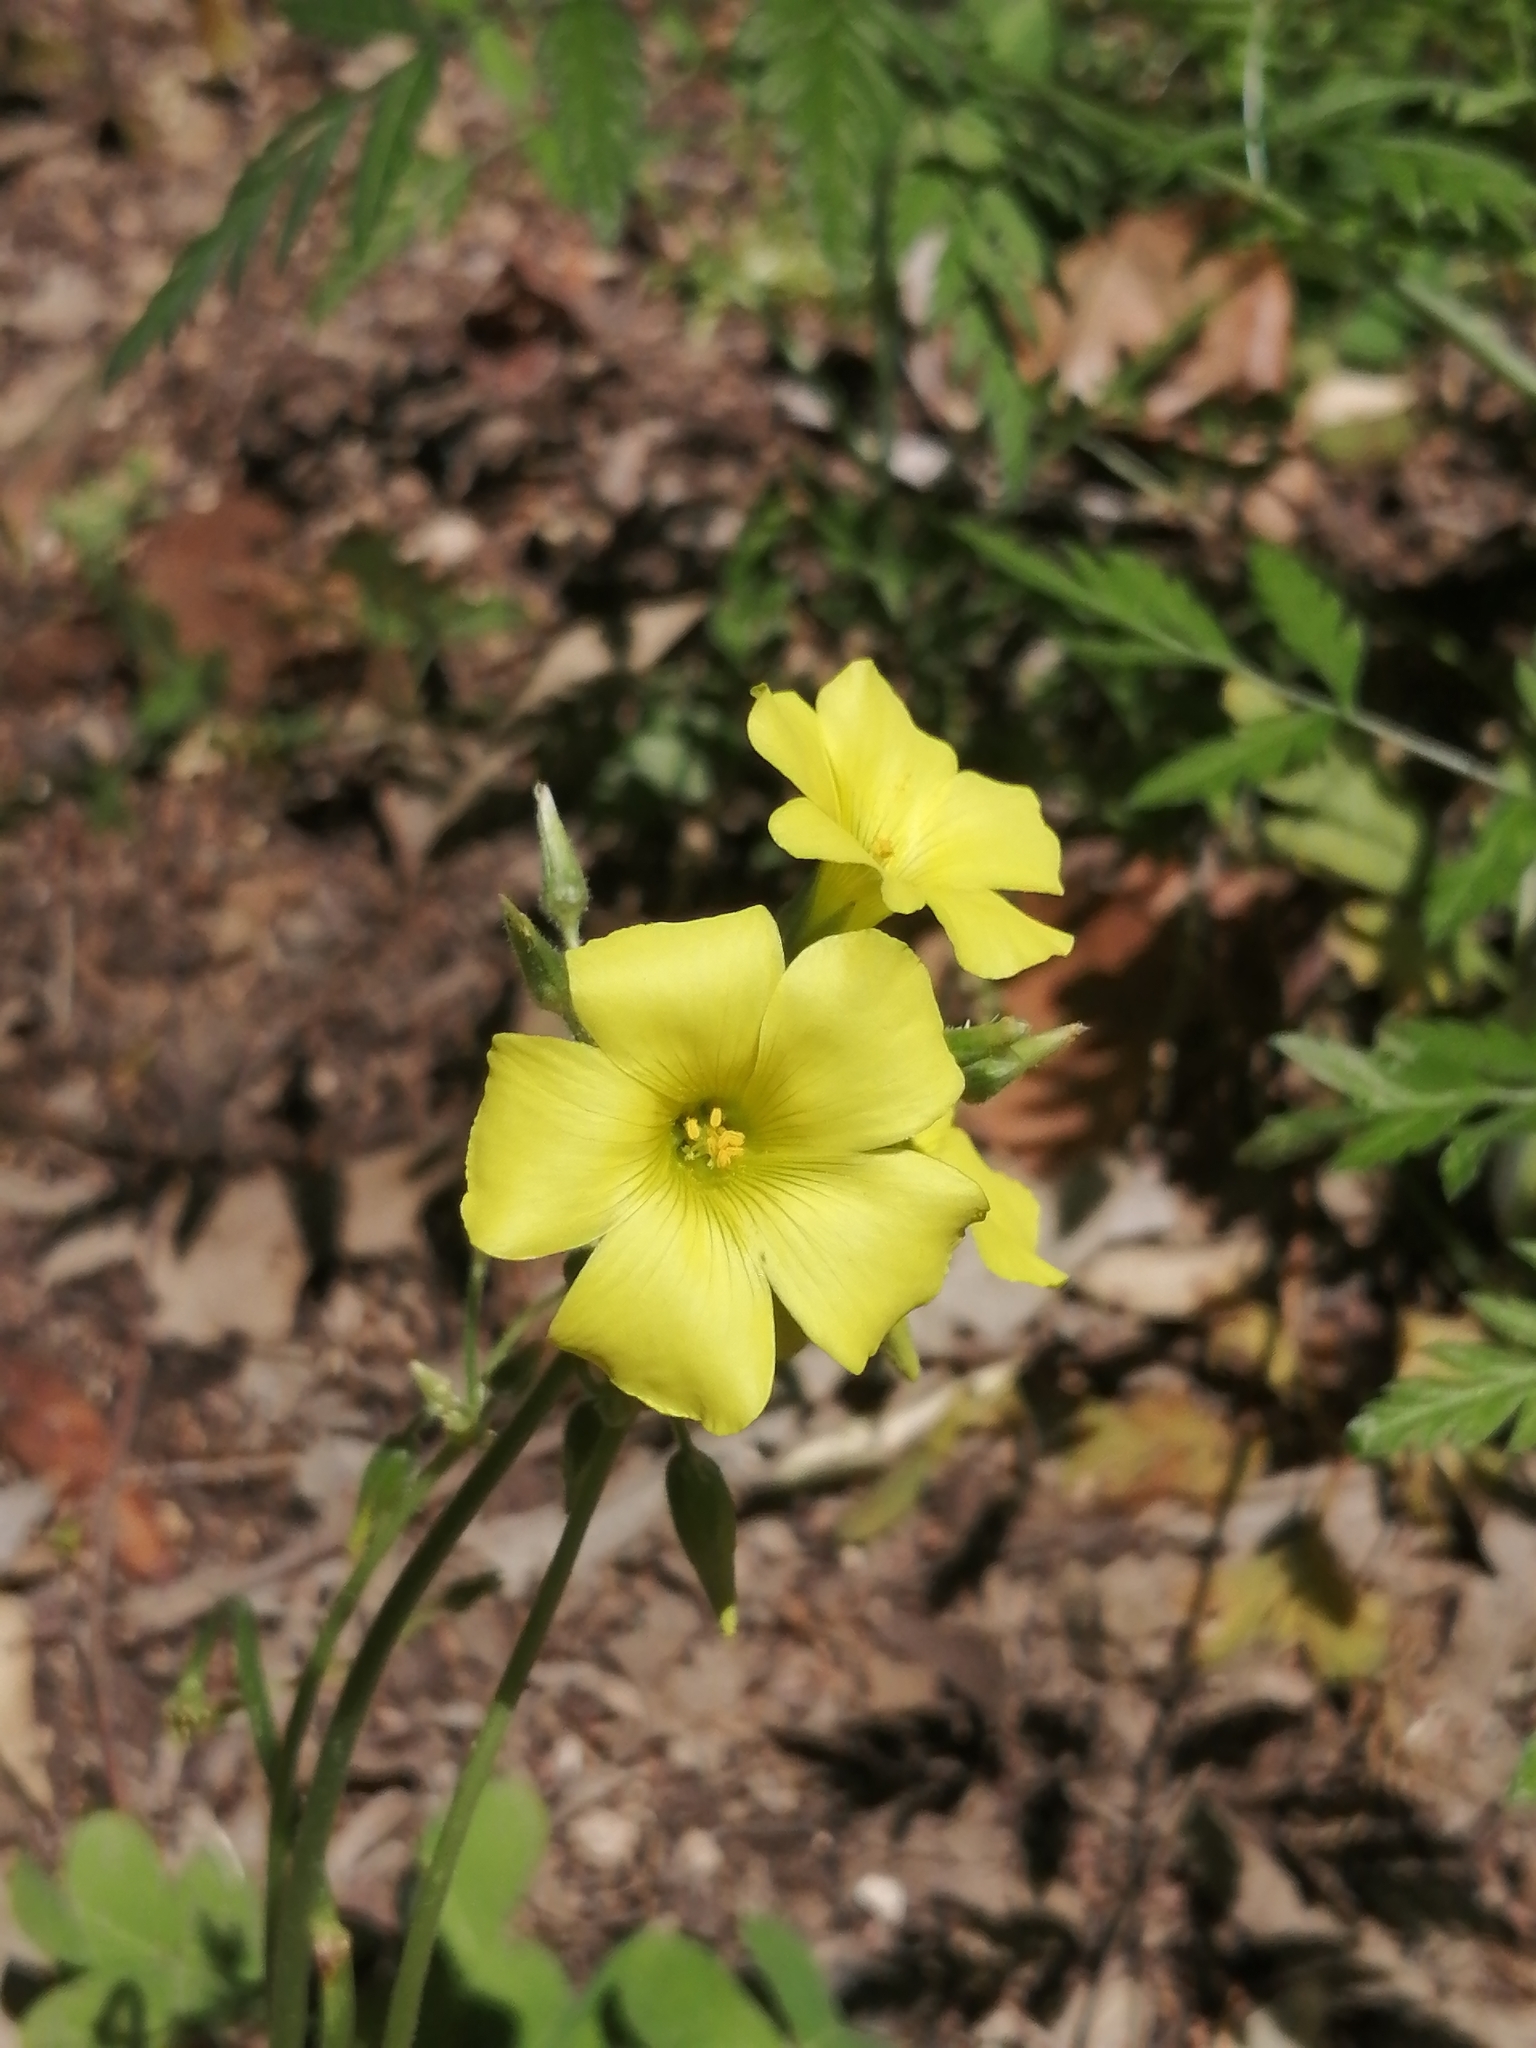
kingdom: Plantae
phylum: Tracheophyta
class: Magnoliopsida
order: Oxalidales
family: Oxalidaceae
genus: Oxalis
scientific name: Oxalis pes-caprae
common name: Bermuda-buttercup
